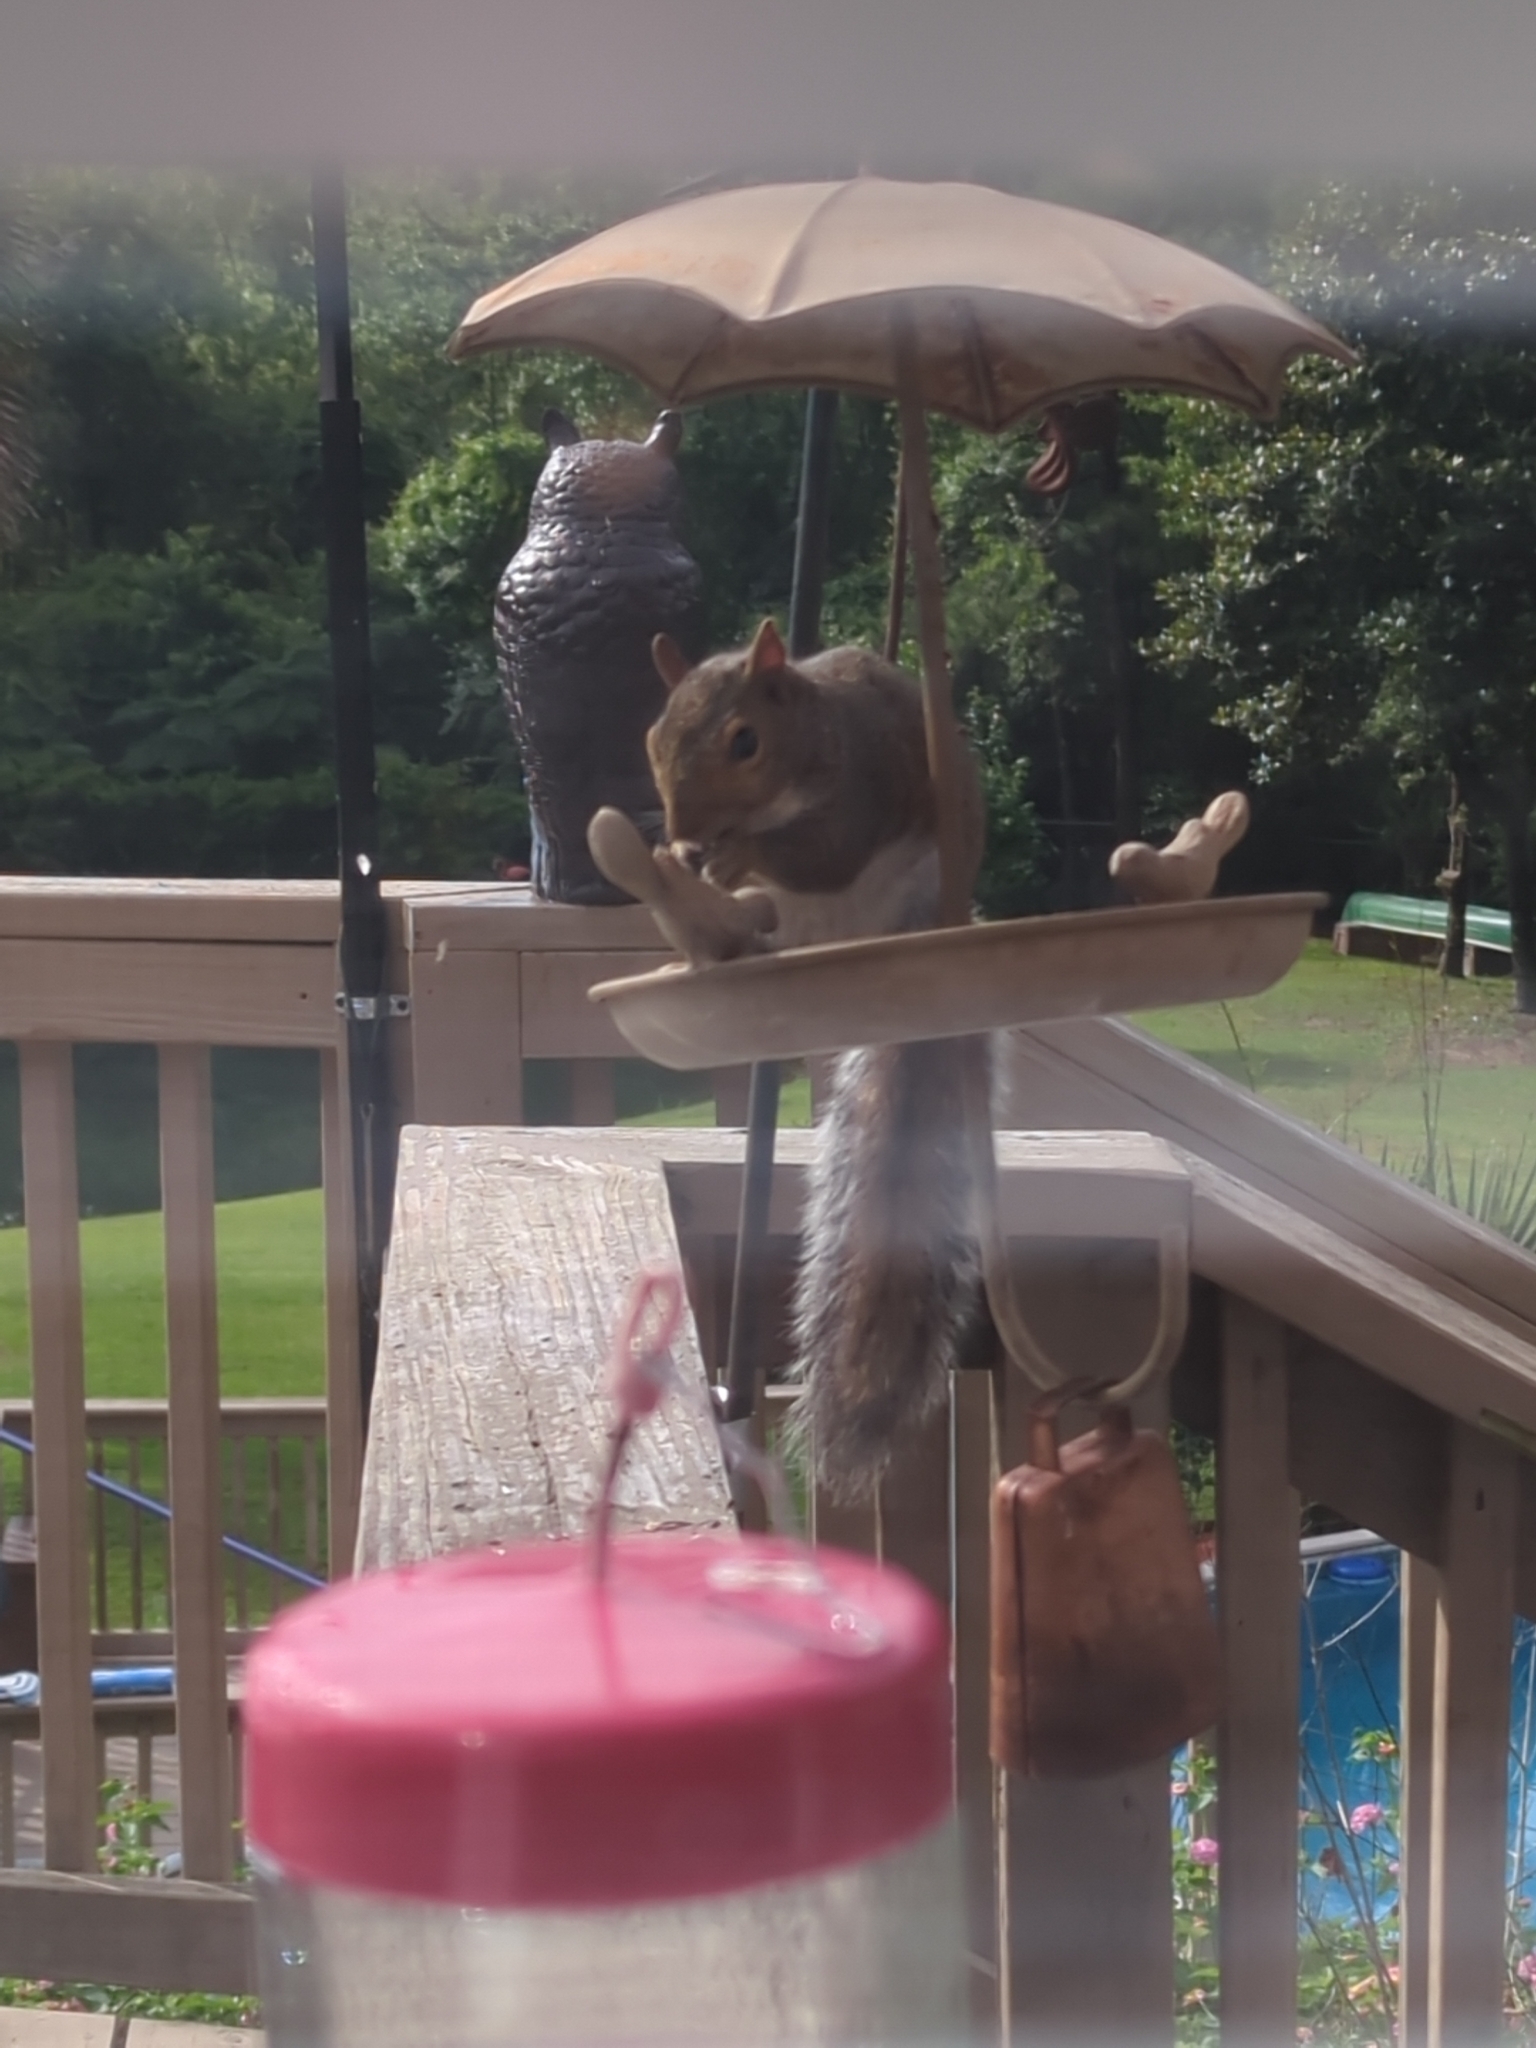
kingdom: Animalia
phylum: Chordata
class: Mammalia
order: Rodentia
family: Sciuridae
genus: Sciurus
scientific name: Sciurus carolinensis
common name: Eastern gray squirrel
